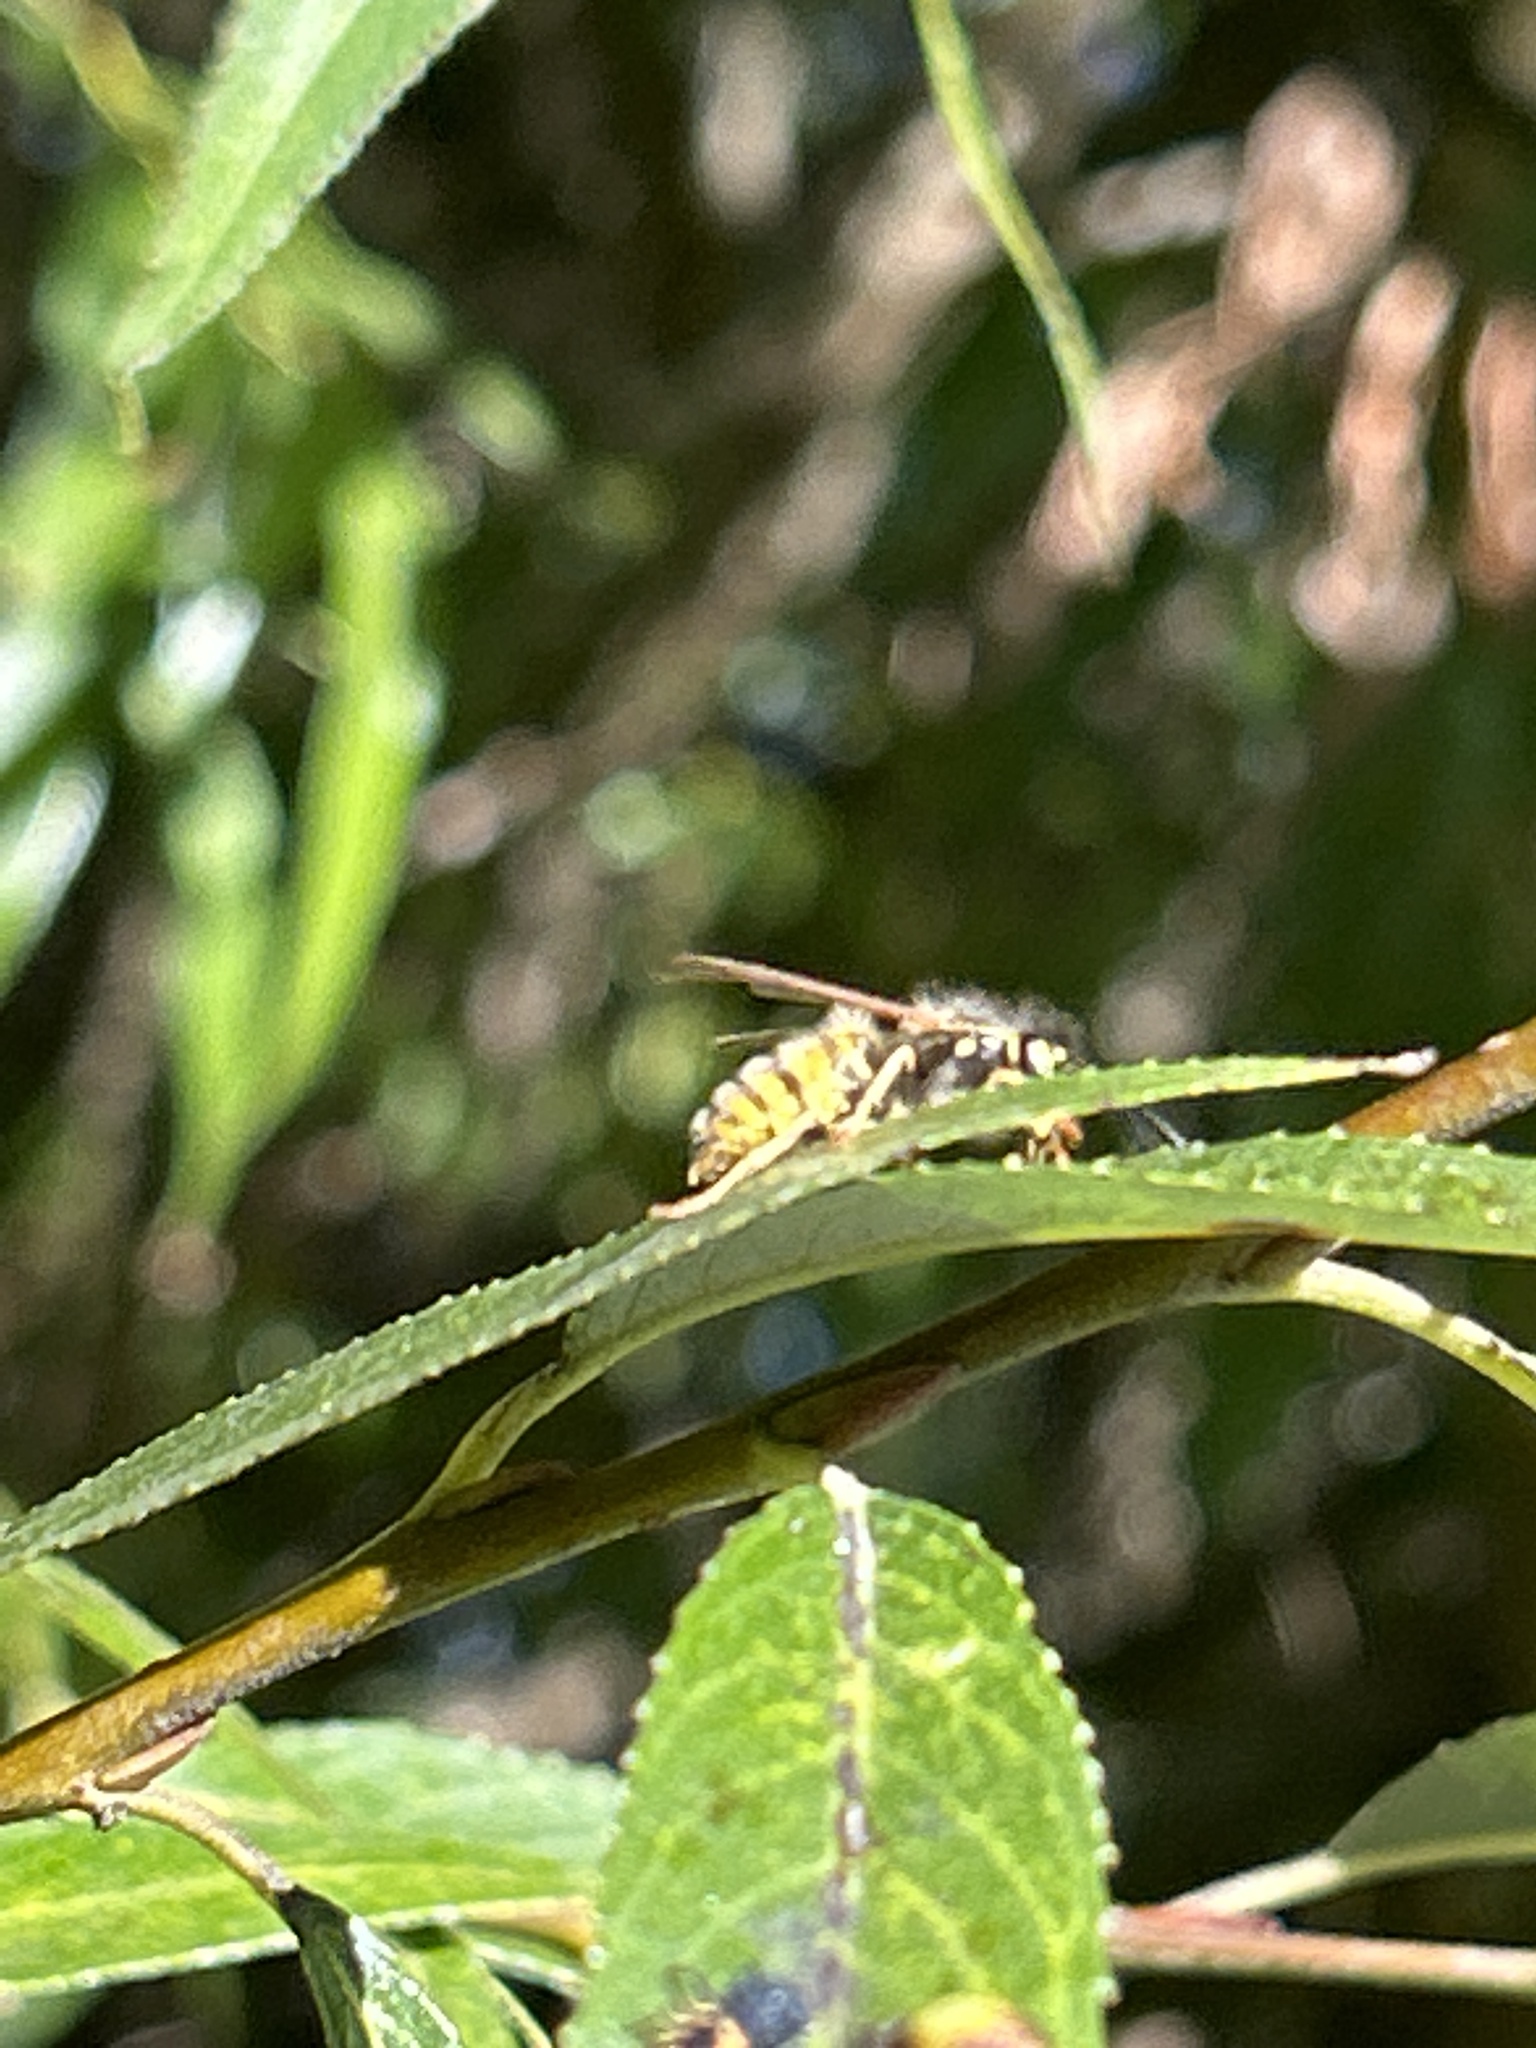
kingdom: Animalia
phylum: Arthropoda
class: Insecta
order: Hymenoptera
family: Vespidae
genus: Vespula
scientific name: Vespula
